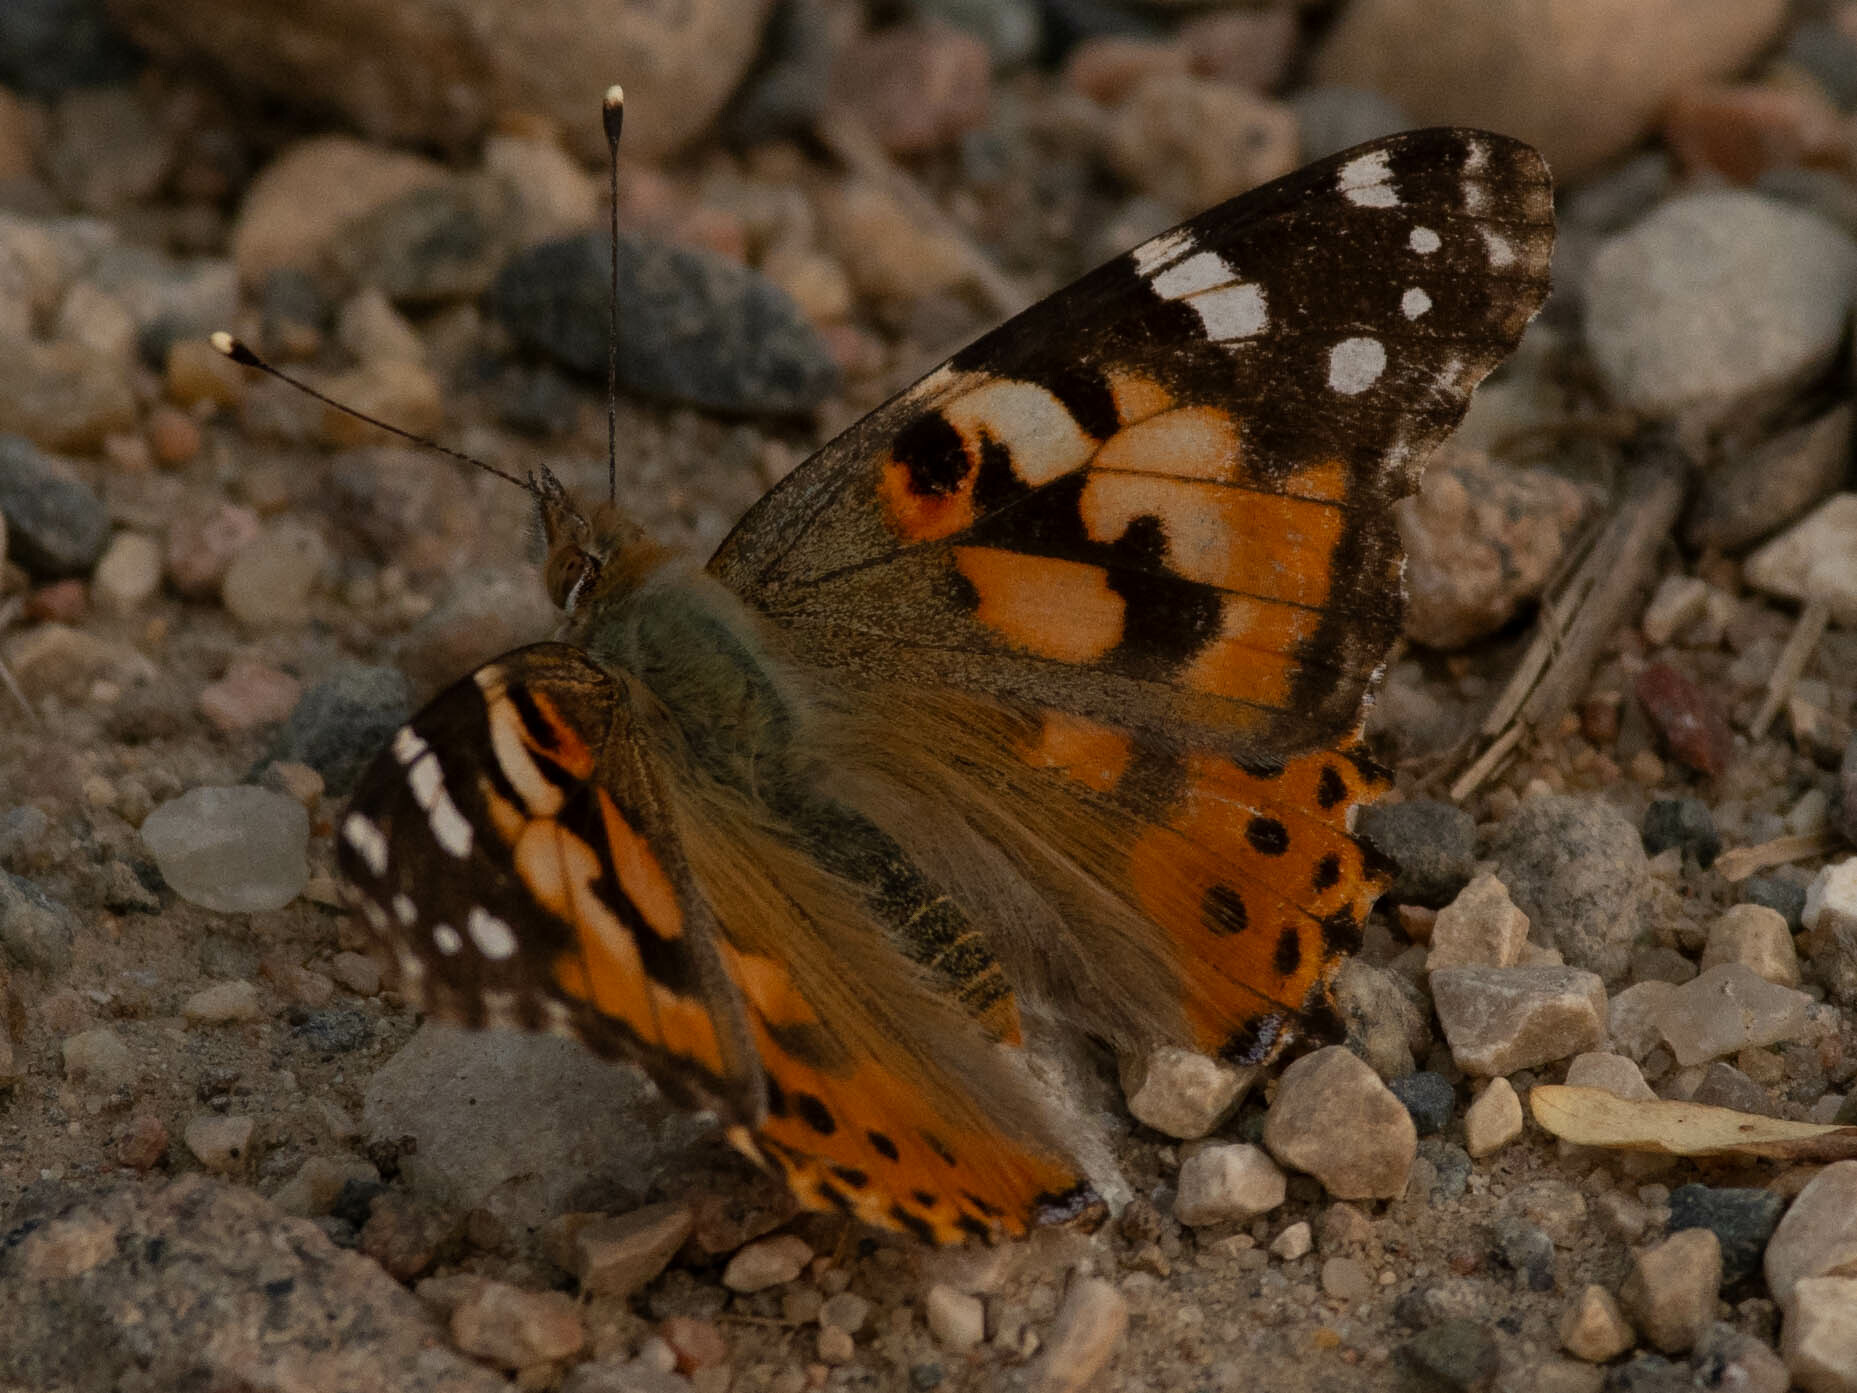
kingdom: Animalia
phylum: Arthropoda
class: Insecta
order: Lepidoptera
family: Nymphalidae
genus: Vanessa
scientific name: Vanessa cardui
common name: Painted lady
